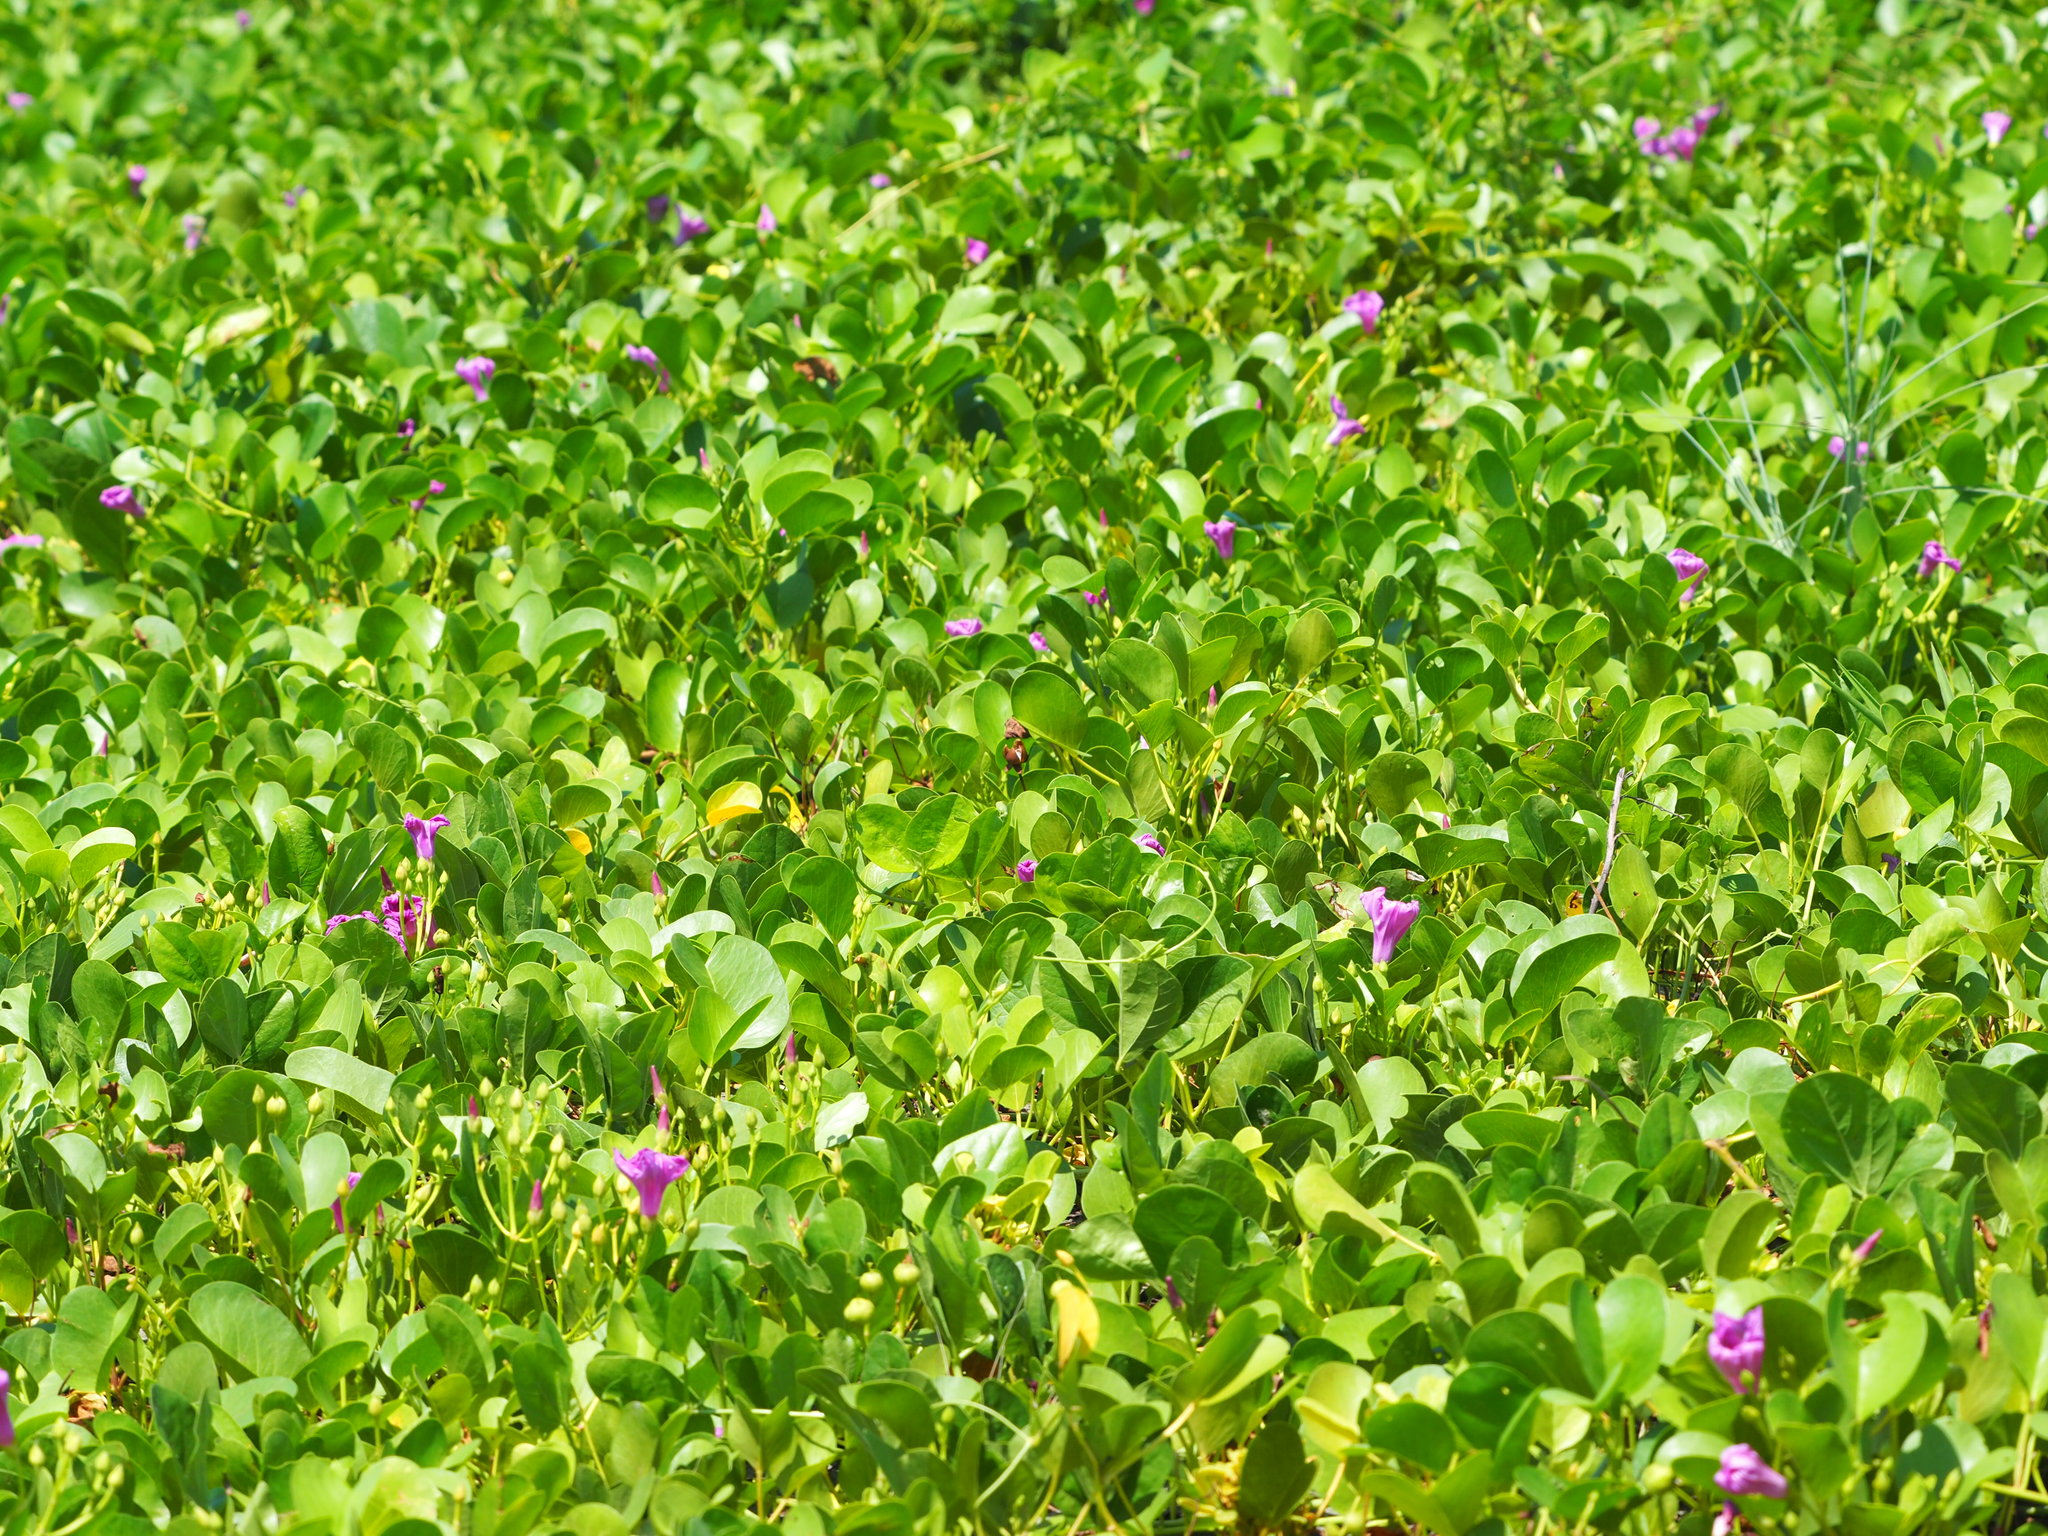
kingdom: Plantae
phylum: Tracheophyta
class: Magnoliopsida
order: Solanales
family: Convolvulaceae
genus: Ipomoea
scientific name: Ipomoea pes-caprae
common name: Beach morning glory
